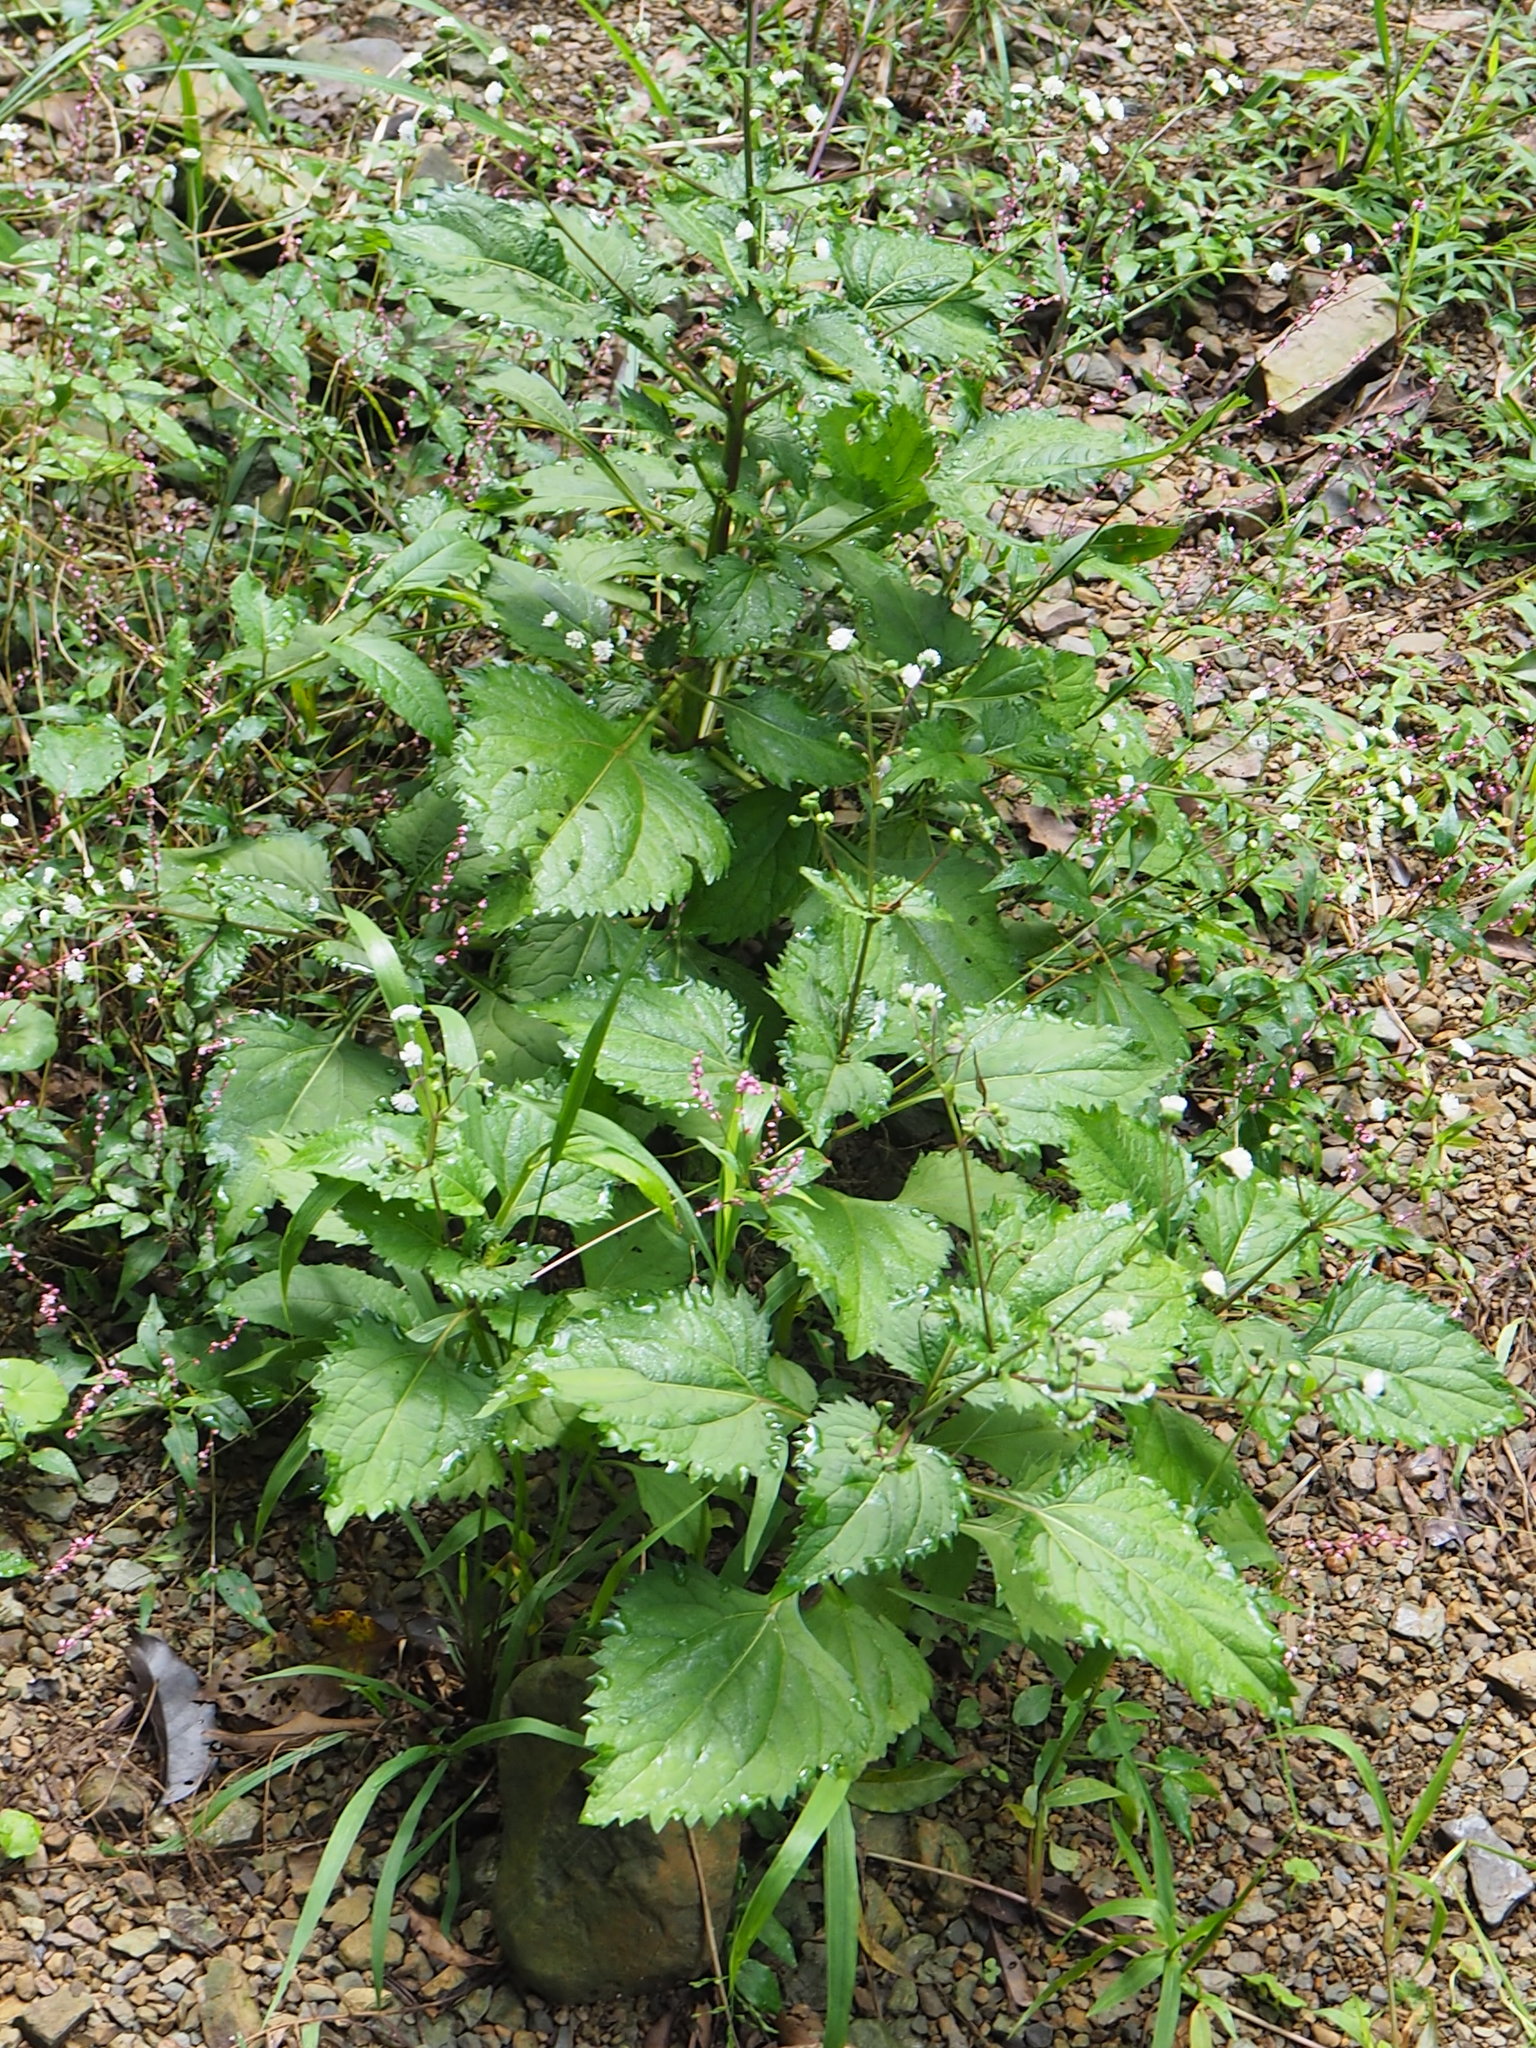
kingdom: Plantae
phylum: Tracheophyta
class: Magnoliopsida
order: Asterales
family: Asteraceae
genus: Adenostemma
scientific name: Adenostemma lavenia
